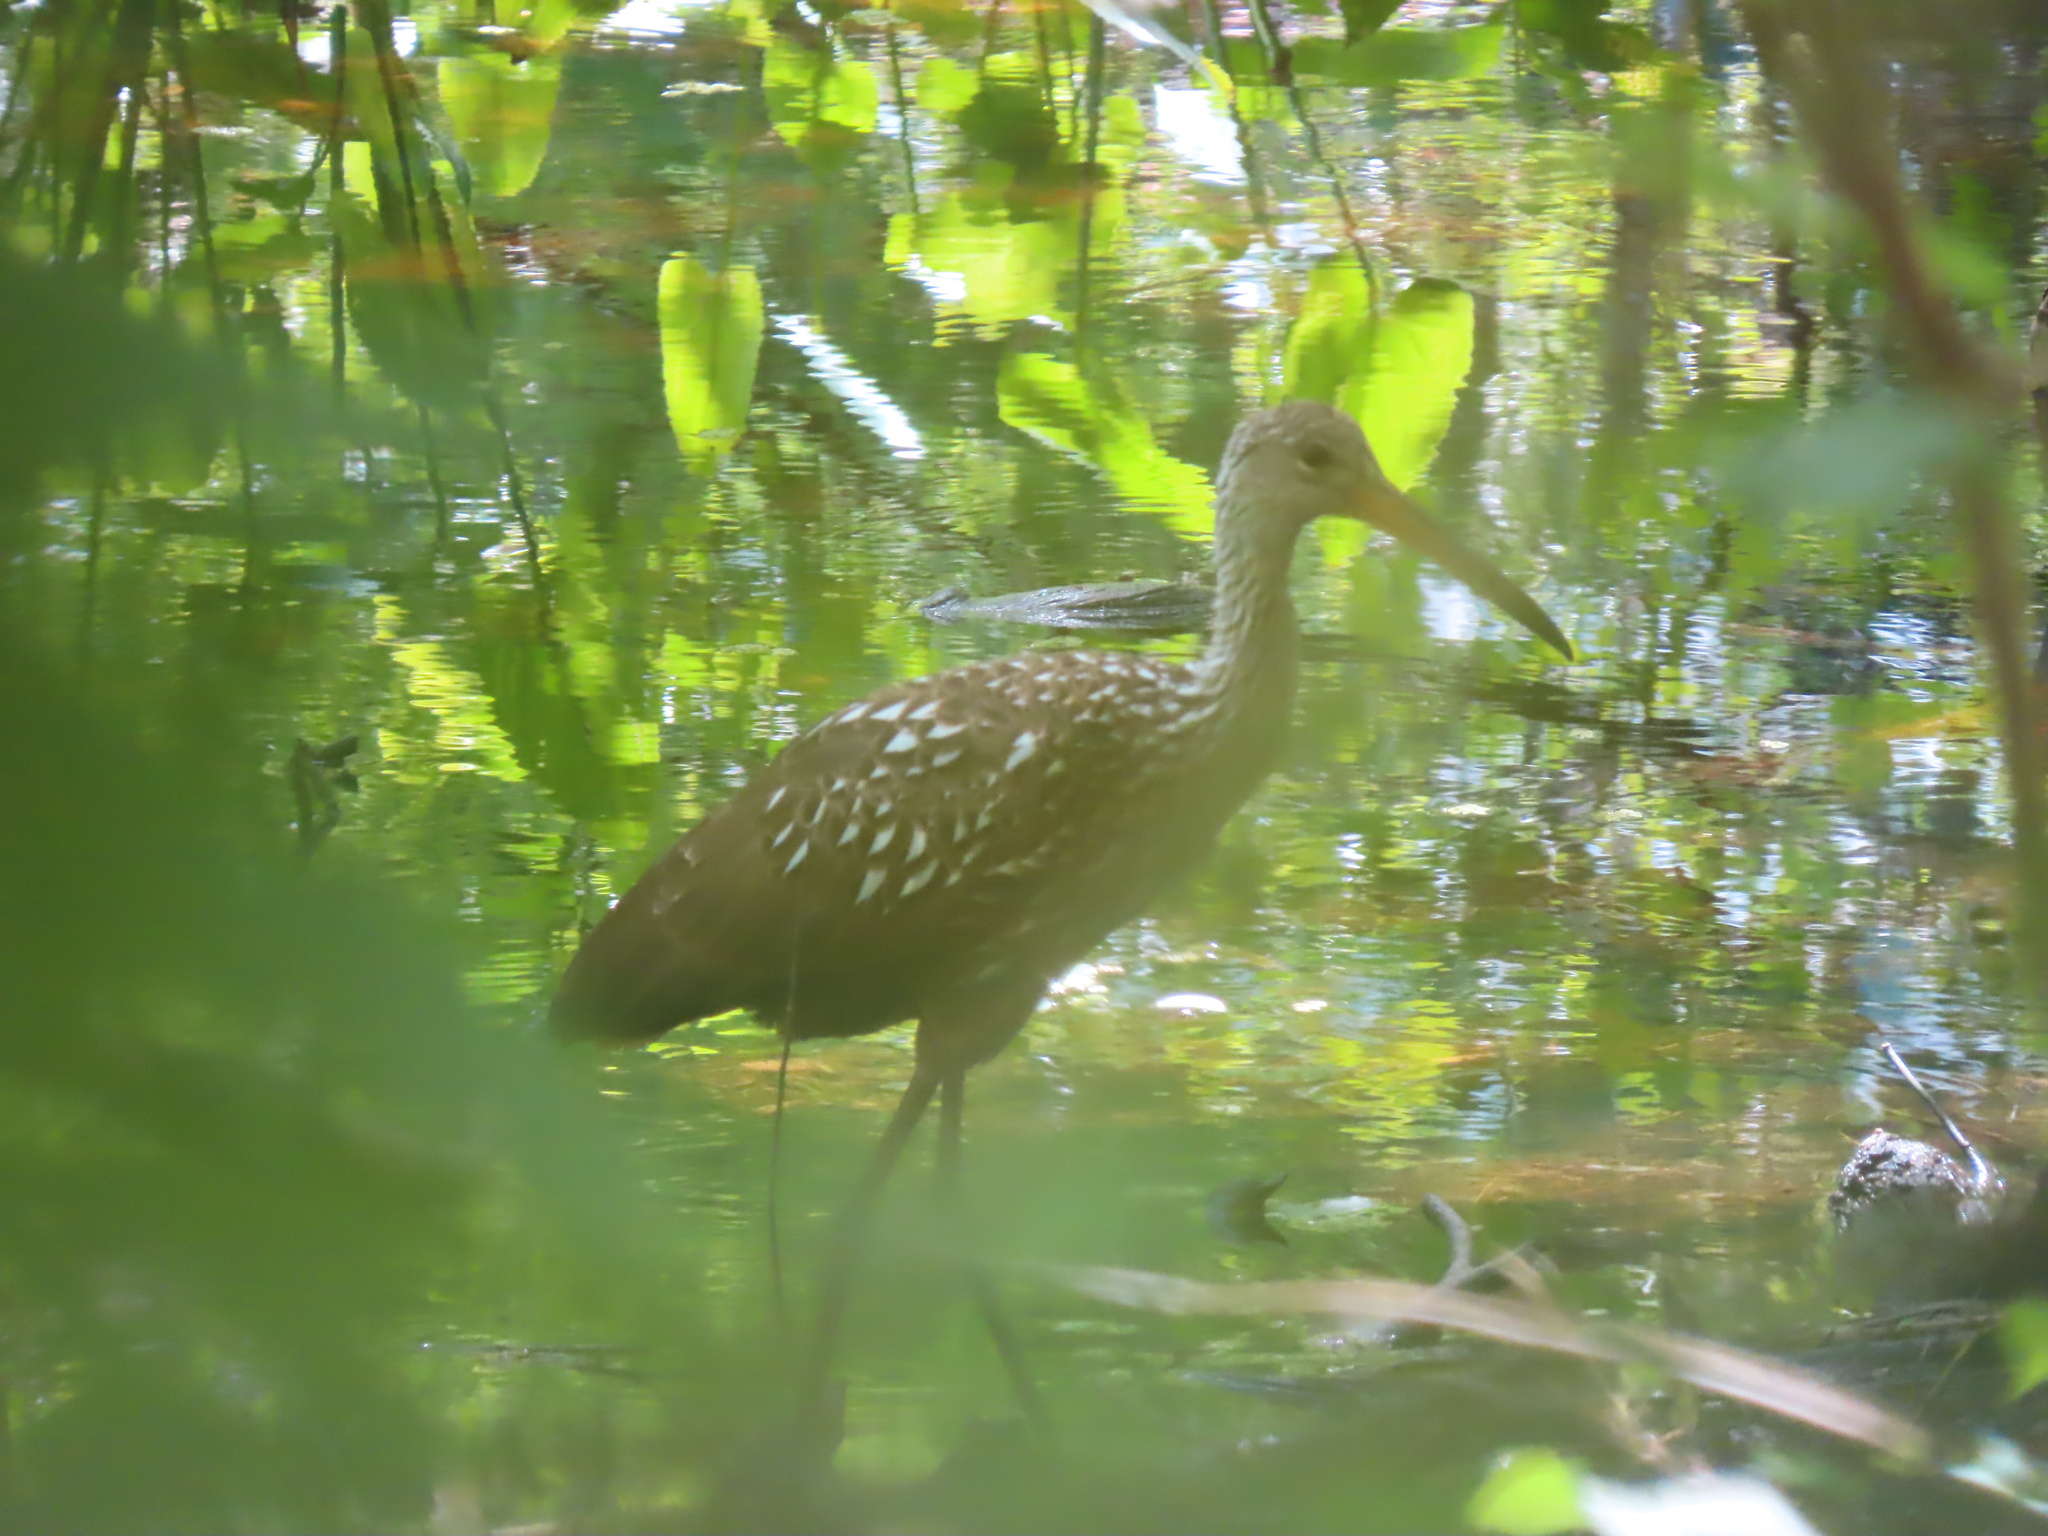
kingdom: Animalia
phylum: Chordata
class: Aves
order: Gruiformes
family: Aramidae
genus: Aramus
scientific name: Aramus guarauna
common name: Limpkin
